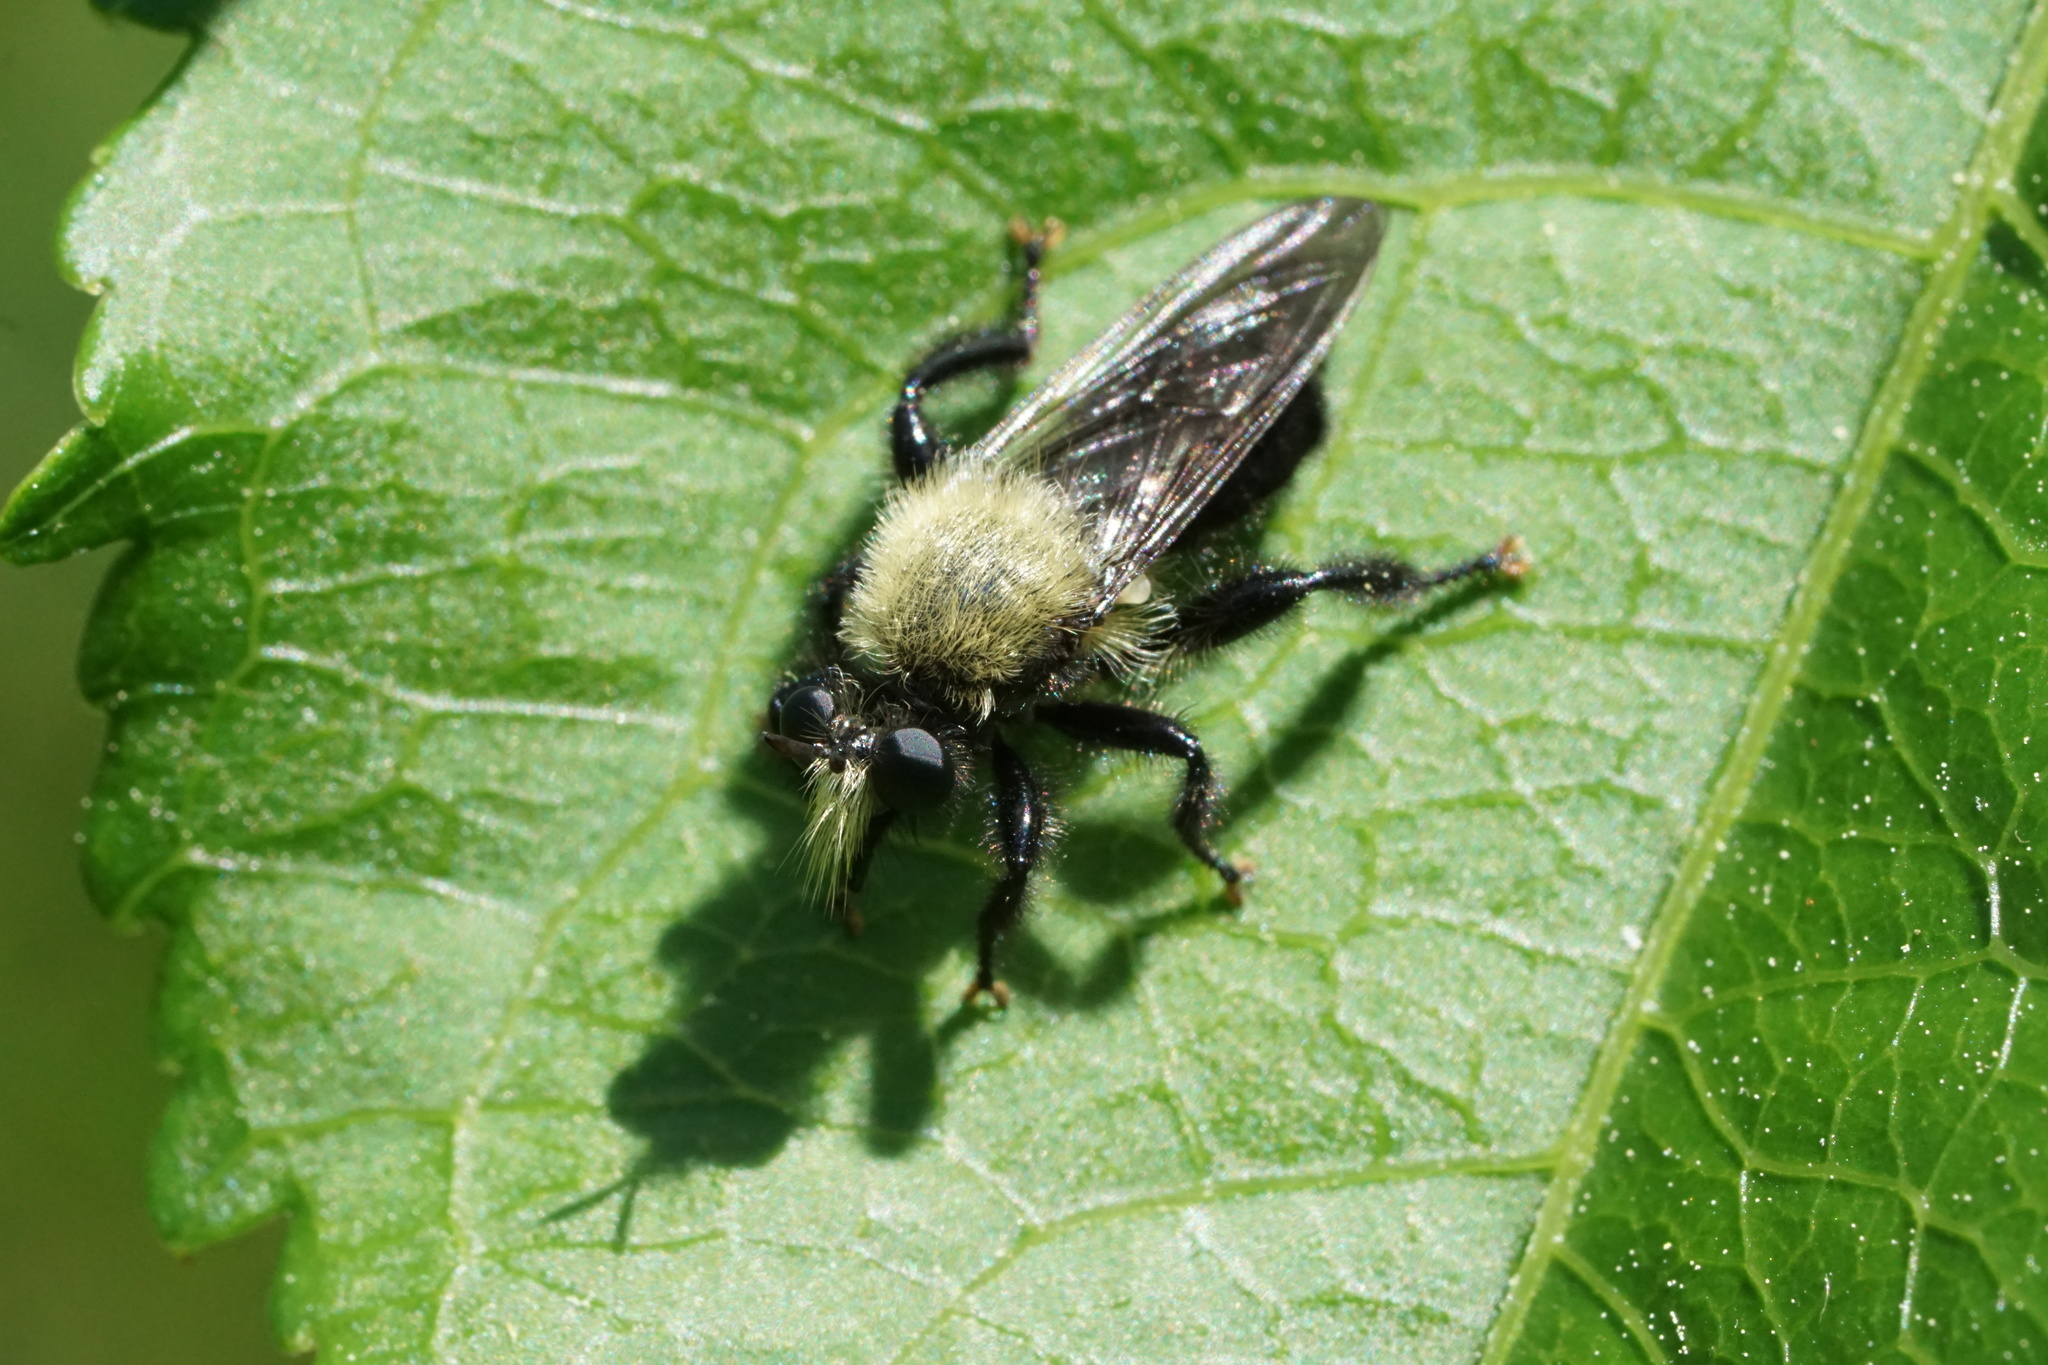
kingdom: Animalia
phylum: Arthropoda
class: Insecta
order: Diptera
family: Asilidae
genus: Laphria
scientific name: Laphria flavicollis
